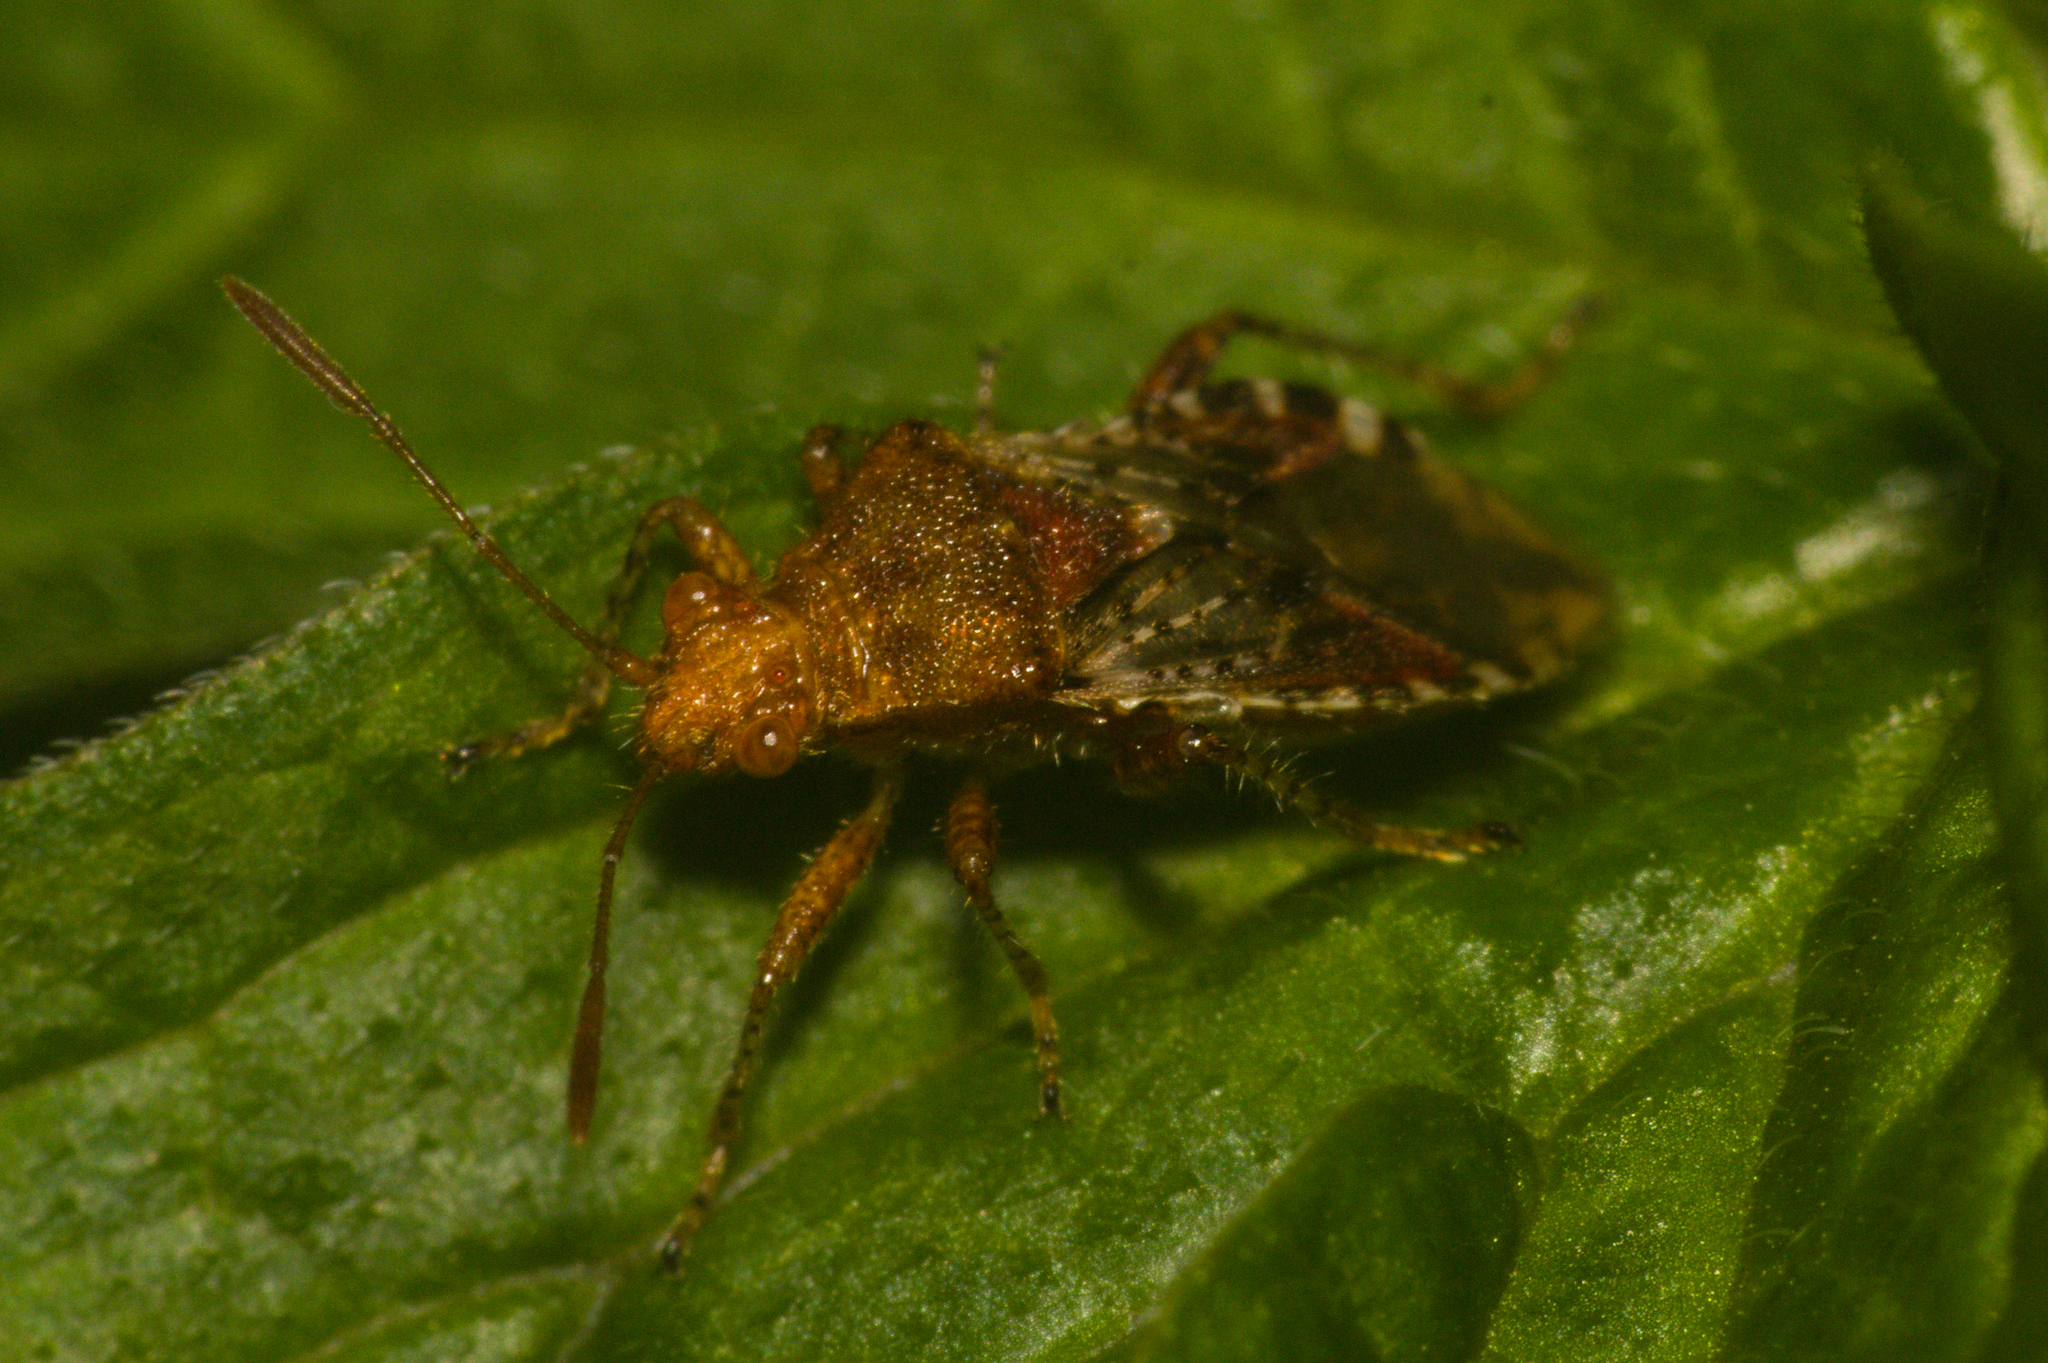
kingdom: Animalia
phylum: Arthropoda
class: Insecta
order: Hemiptera
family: Rhopalidae
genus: Rhopalus
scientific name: Rhopalus subrufus
